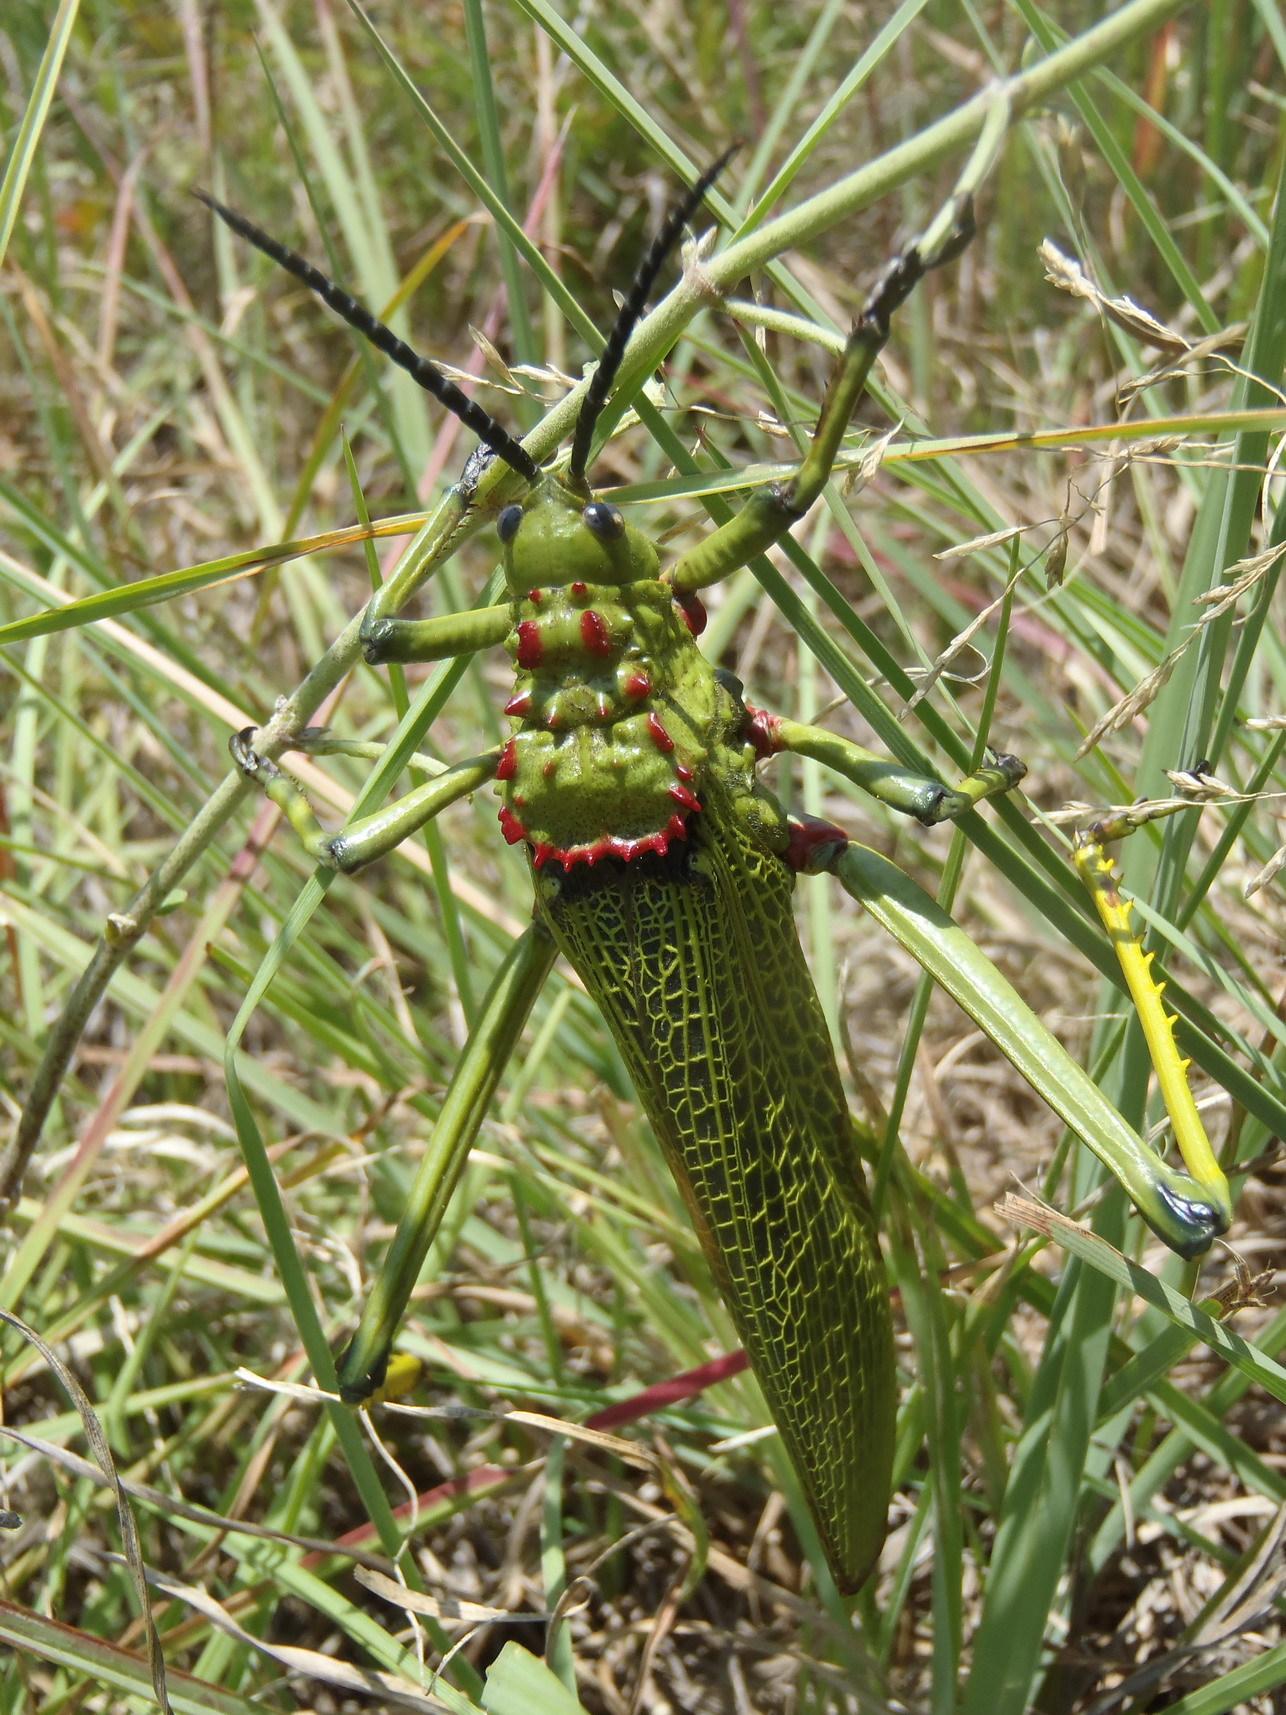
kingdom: Animalia
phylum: Arthropoda
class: Insecta
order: Orthoptera
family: Pyrgomorphidae
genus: Phymateus
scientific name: Phymateus viridipes
